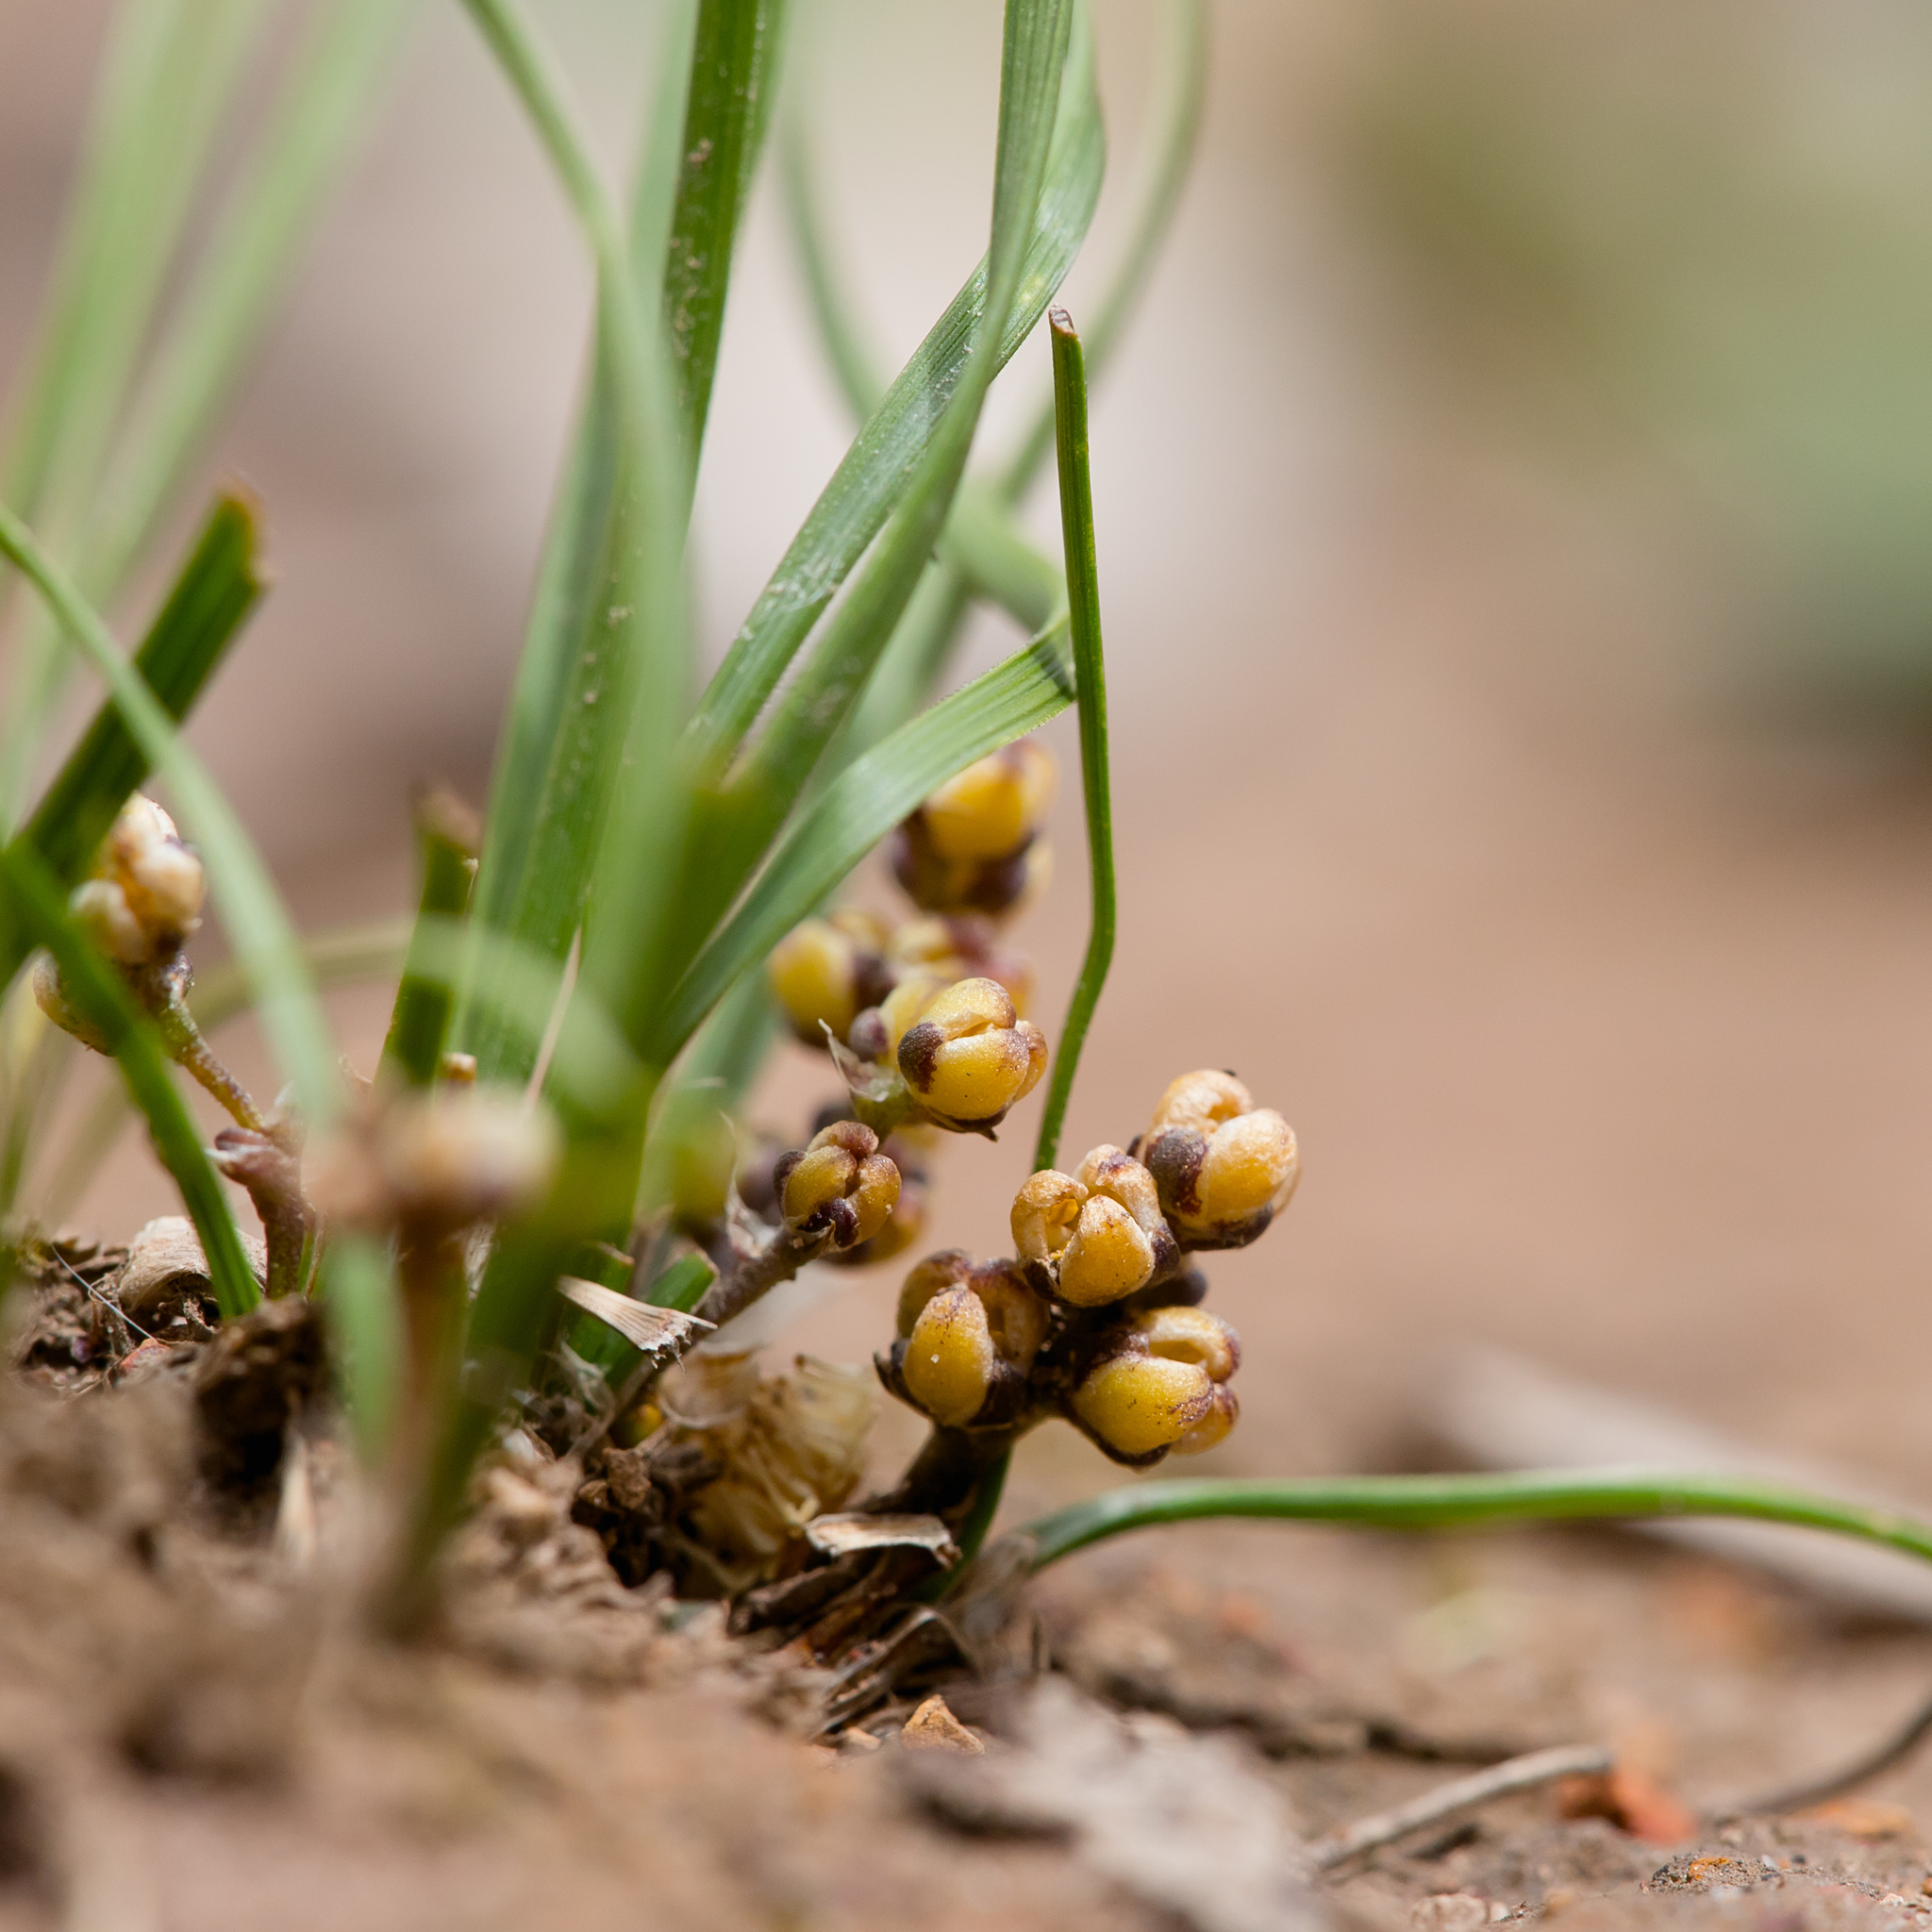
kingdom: Plantae
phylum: Tracheophyta
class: Liliopsida
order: Asparagales
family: Asparagaceae
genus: Lomandra
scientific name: Lomandra sororia
